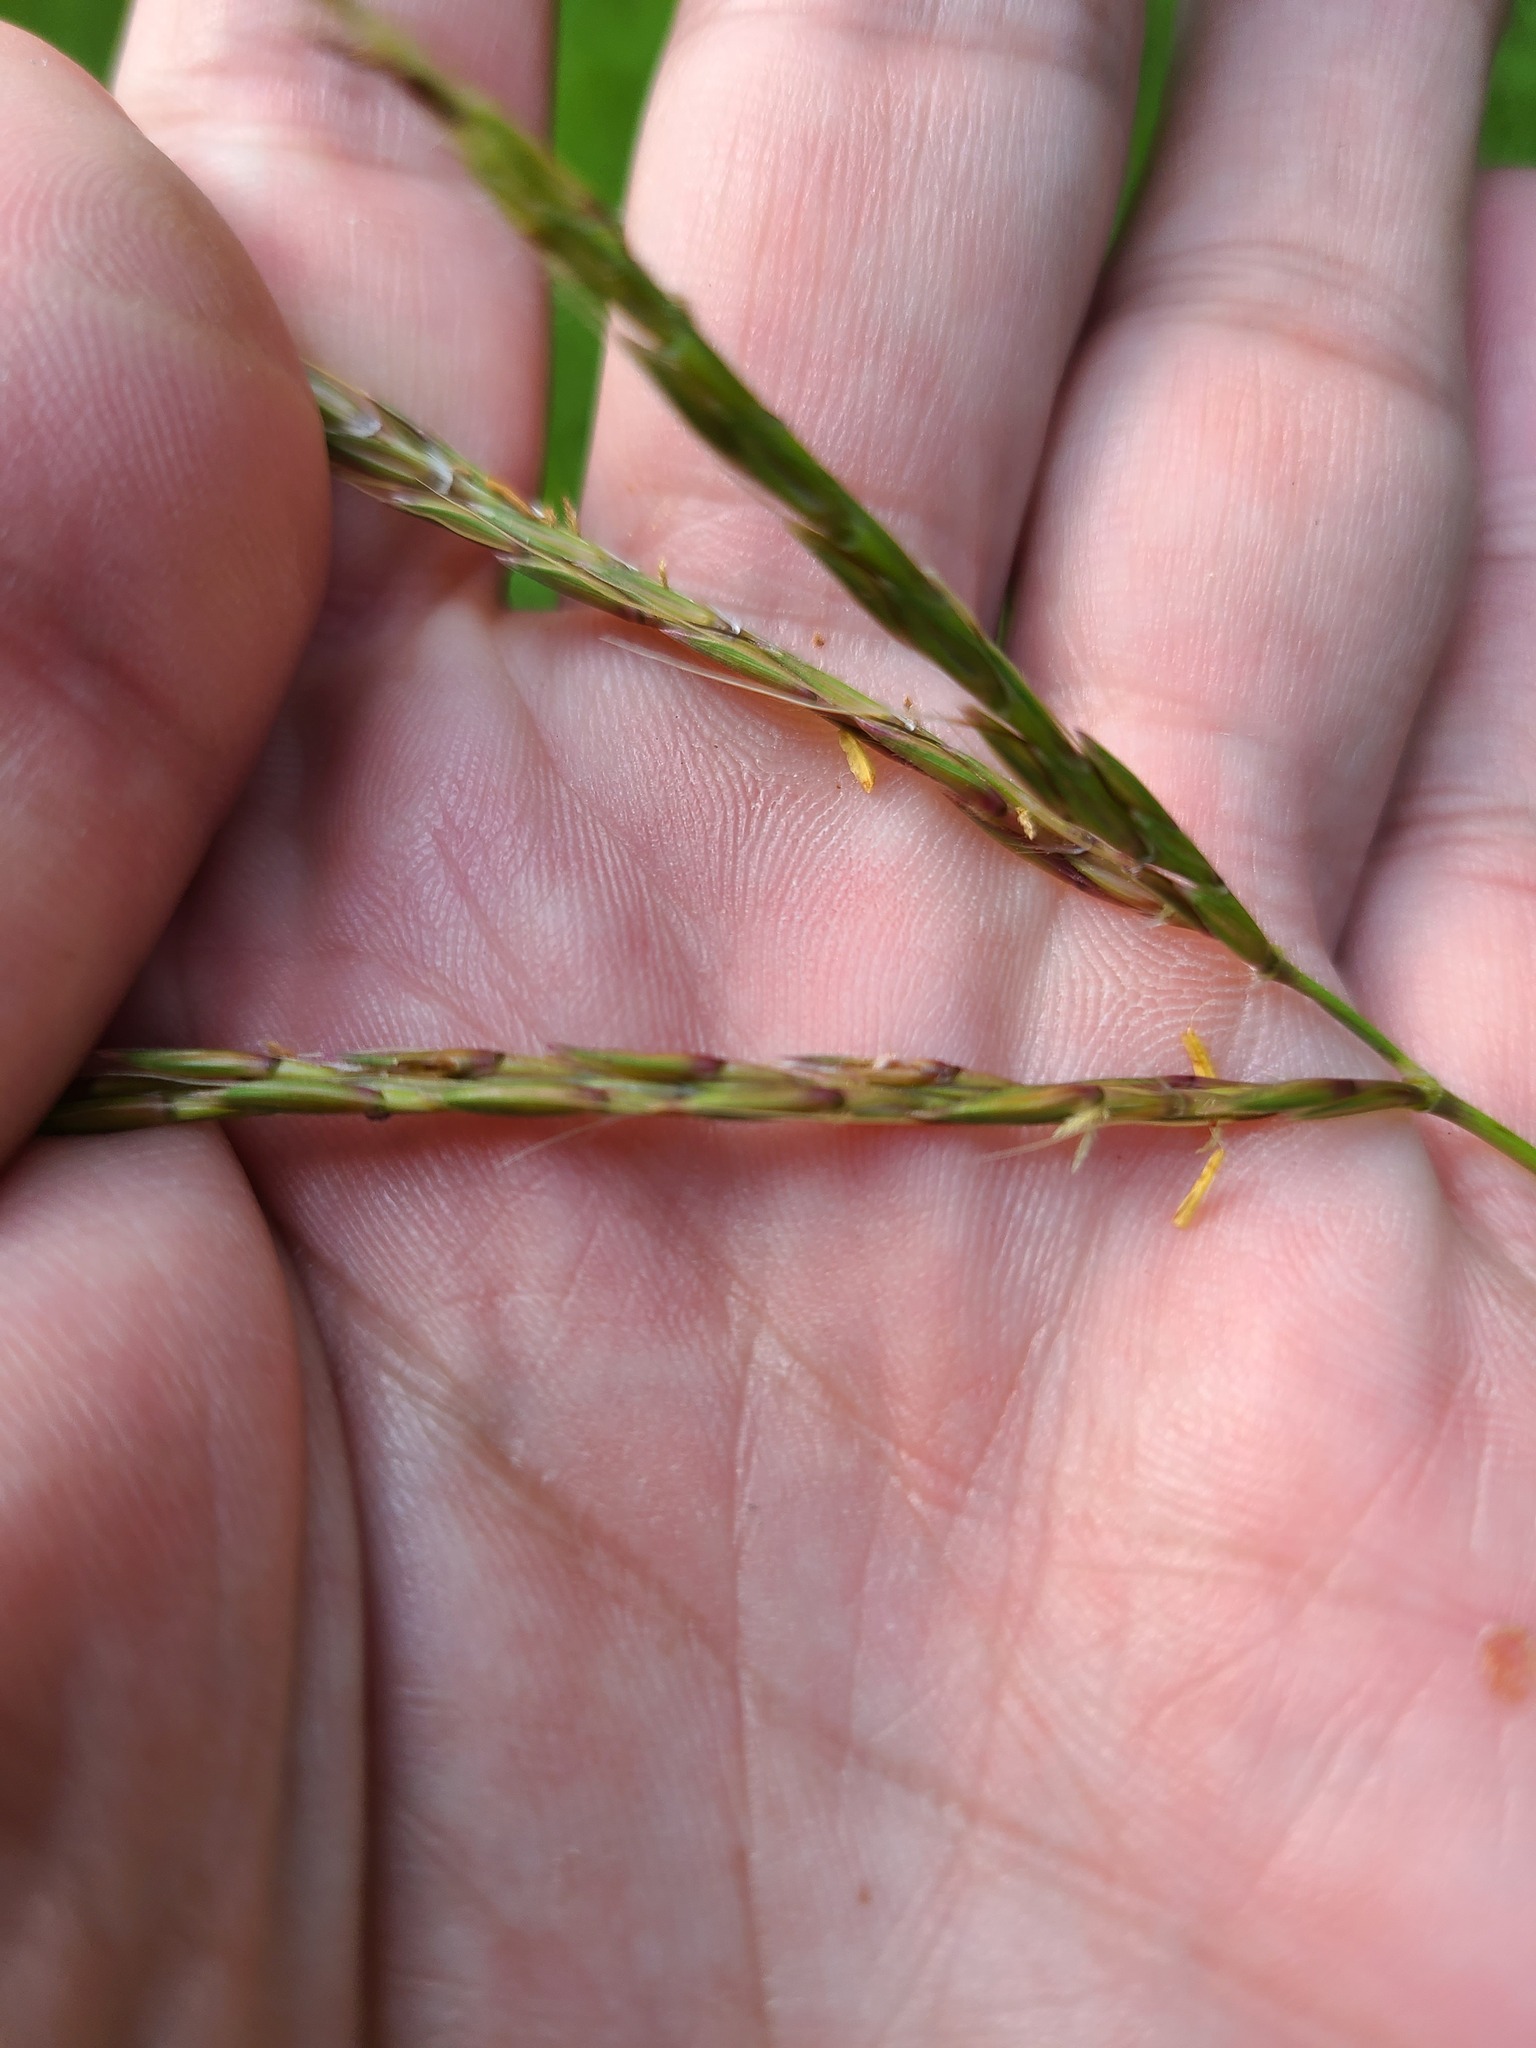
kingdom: Plantae
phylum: Tracheophyta
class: Liliopsida
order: Poales
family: Poaceae
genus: Andropogon
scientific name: Andropogon gerardi
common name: Big bluestem
